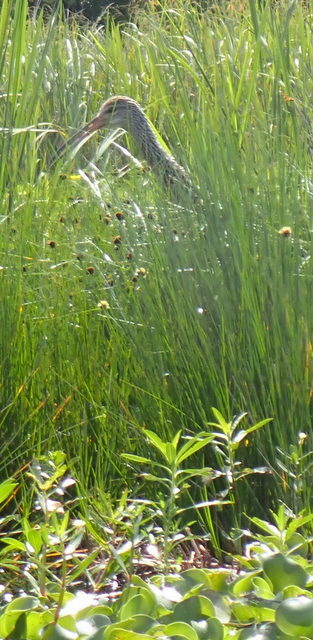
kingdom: Animalia
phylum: Chordata
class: Aves
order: Gruiformes
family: Aramidae
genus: Aramus
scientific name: Aramus guarauna
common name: Limpkin
